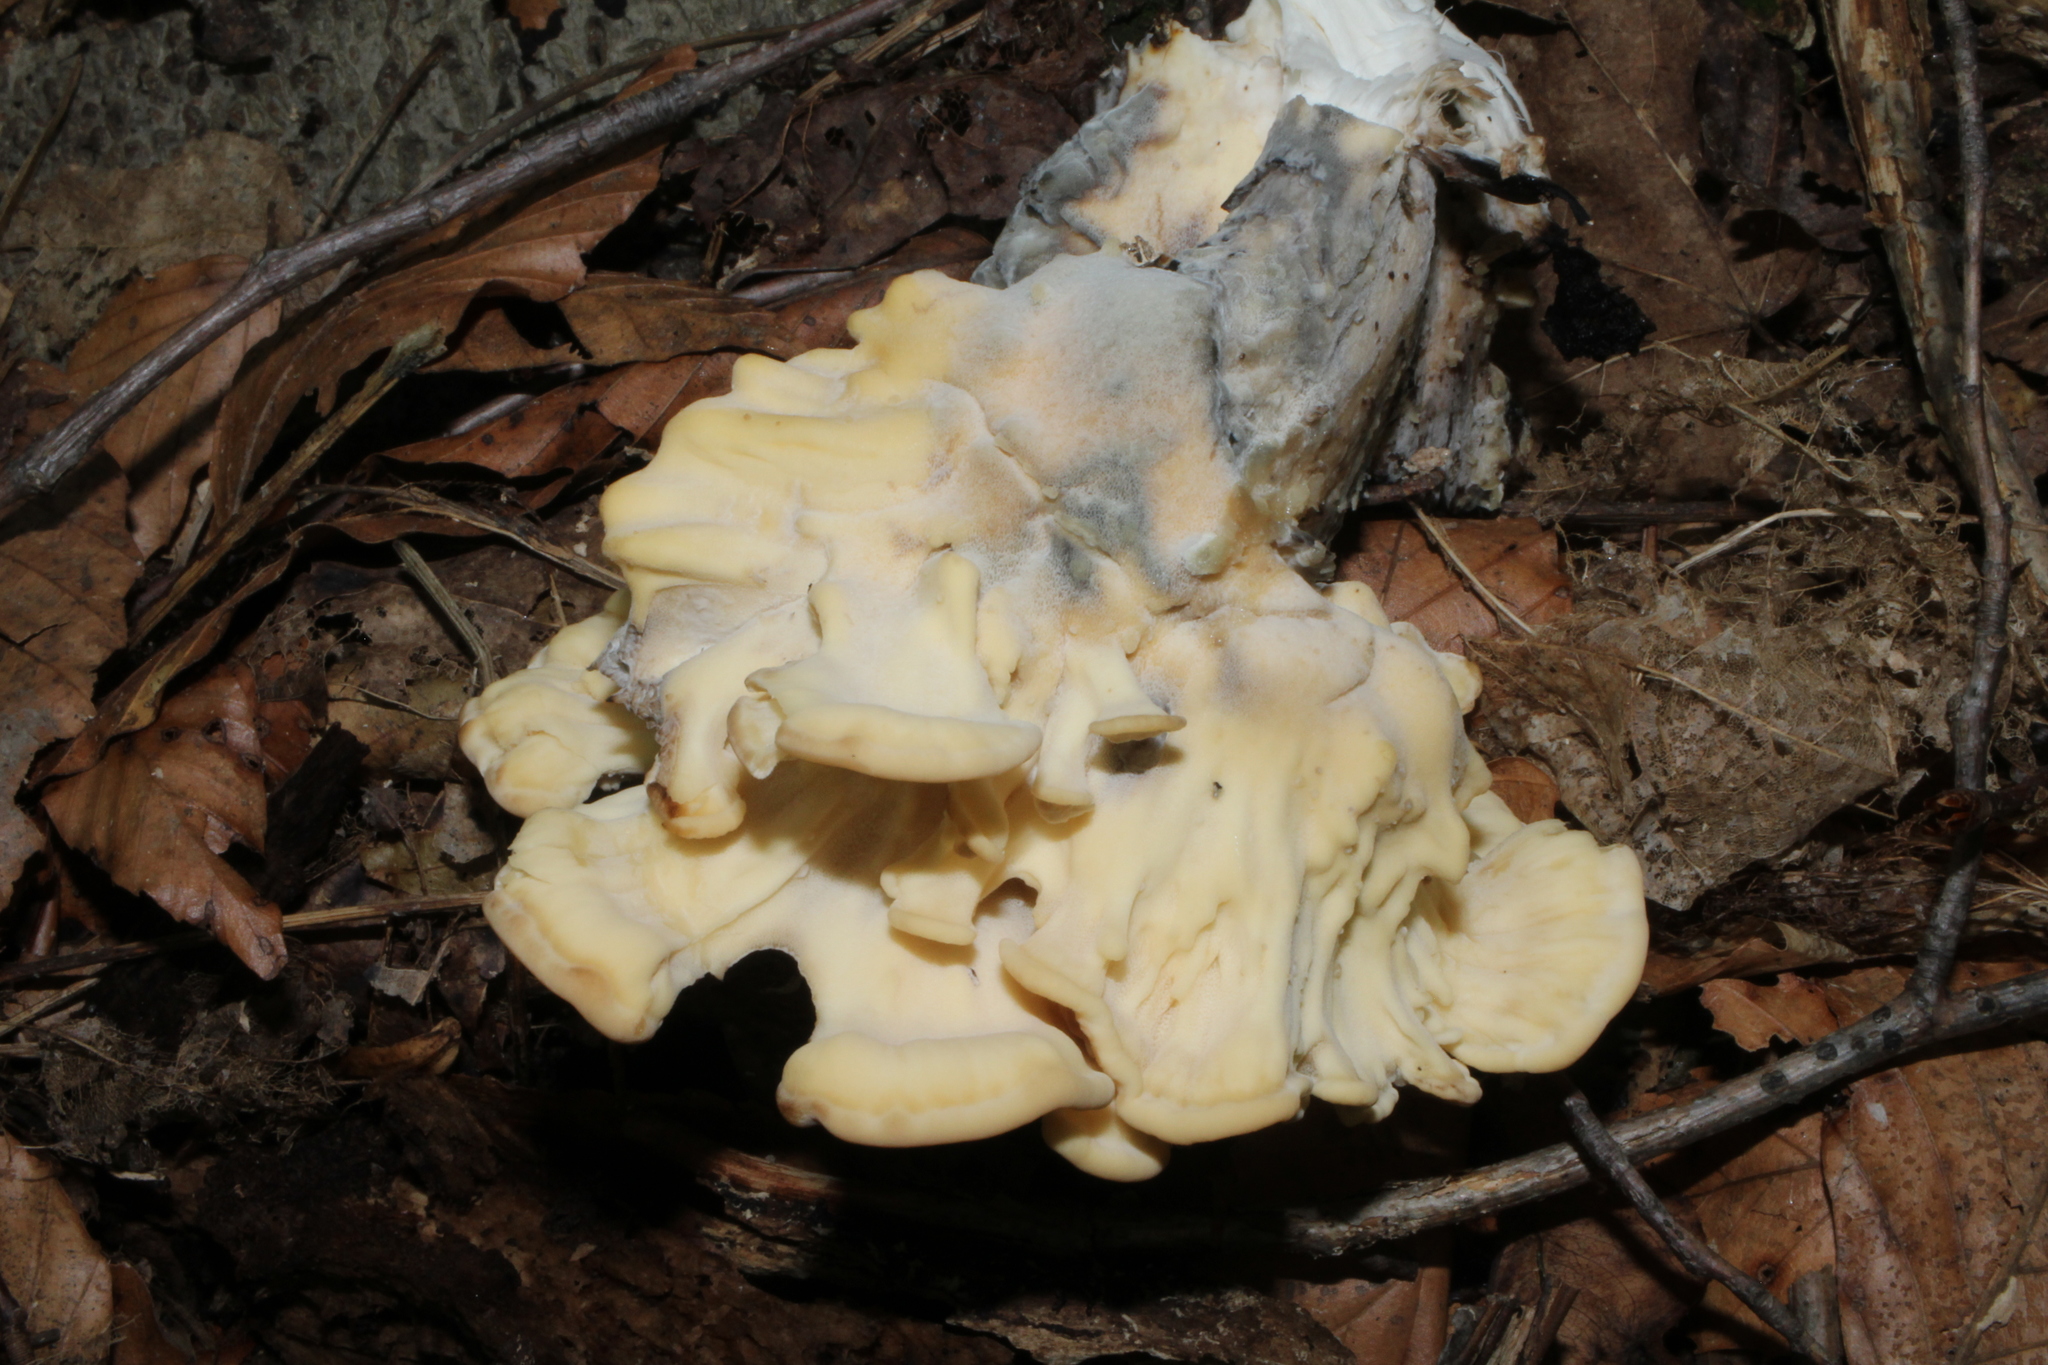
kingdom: Fungi
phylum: Basidiomycota
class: Agaricomycetes
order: Polyporales
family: Meripilaceae
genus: Meripilus
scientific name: Meripilus sumstinei
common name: Black-staining polypore
